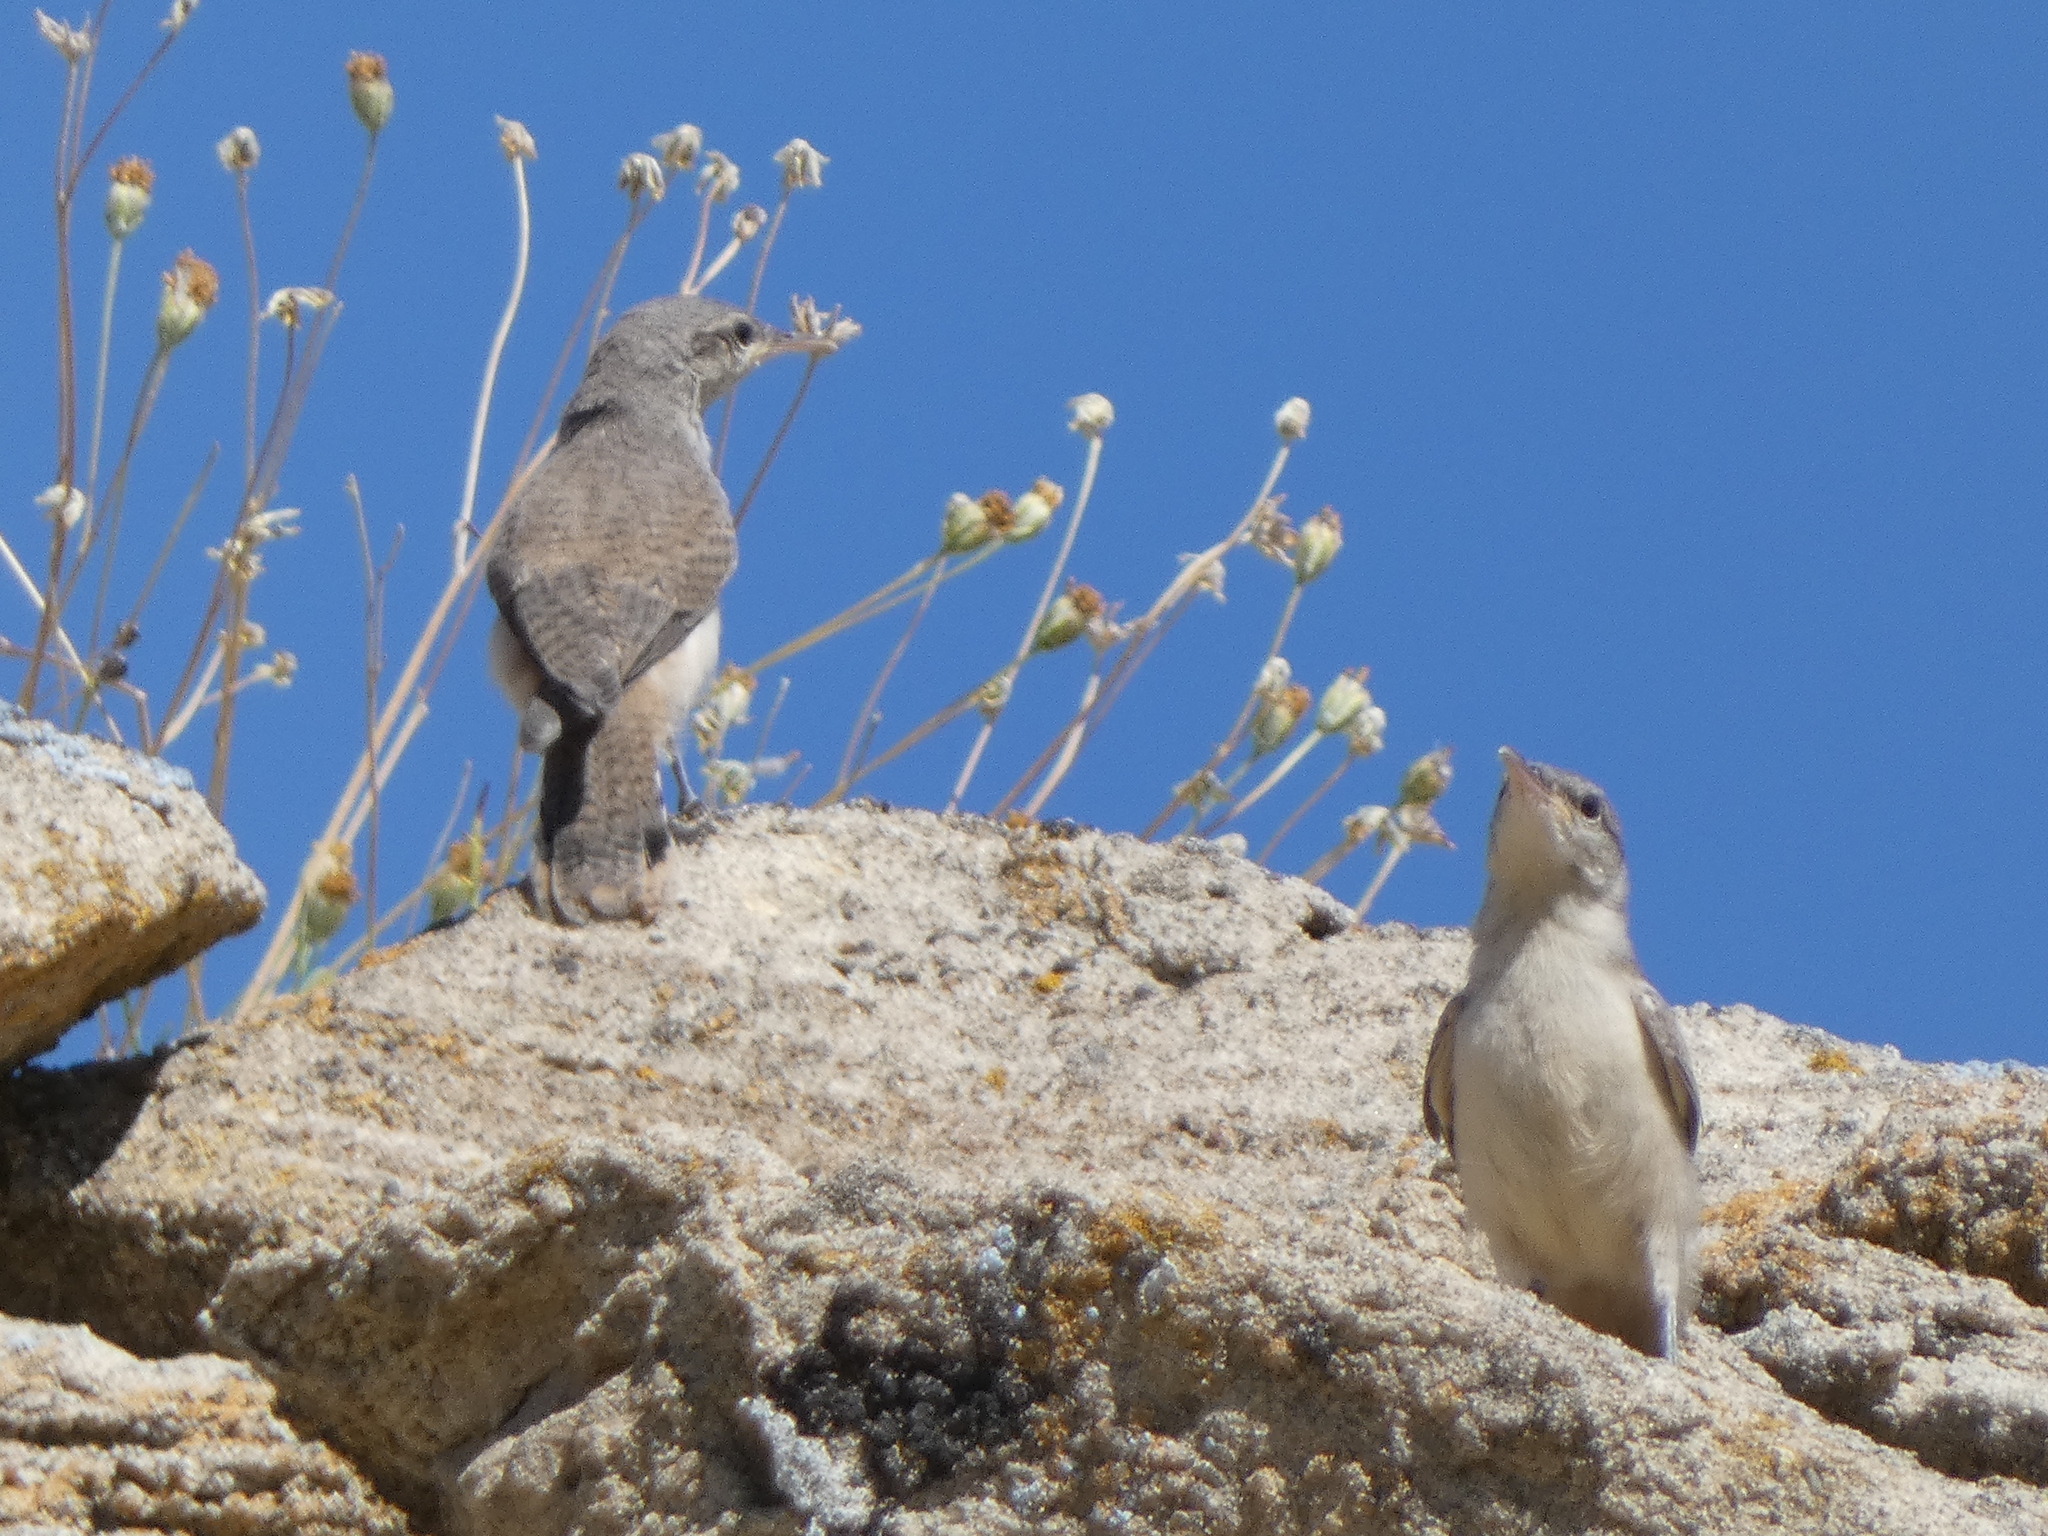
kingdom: Animalia
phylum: Chordata
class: Aves
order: Passeriformes
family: Troglodytidae
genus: Salpinctes
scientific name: Salpinctes obsoletus
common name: Rock wren
